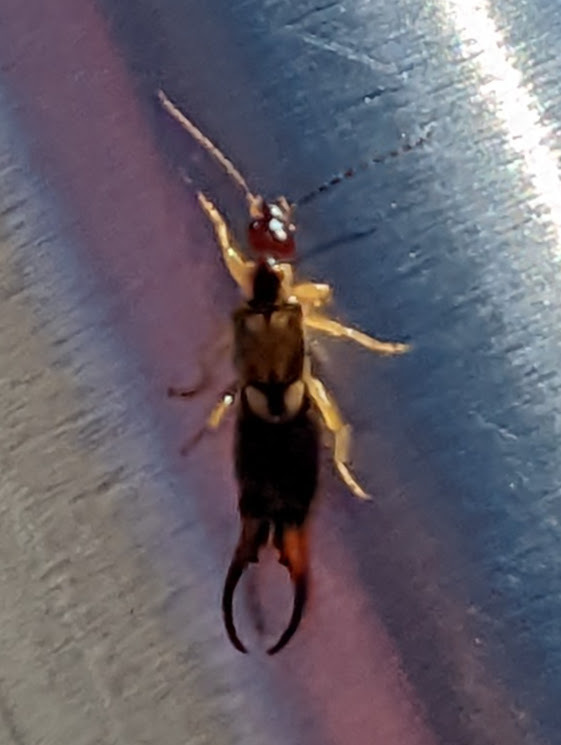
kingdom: Animalia
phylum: Arthropoda
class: Insecta
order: Dermaptera
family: Forficulidae
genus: Forficula
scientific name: Forficula
